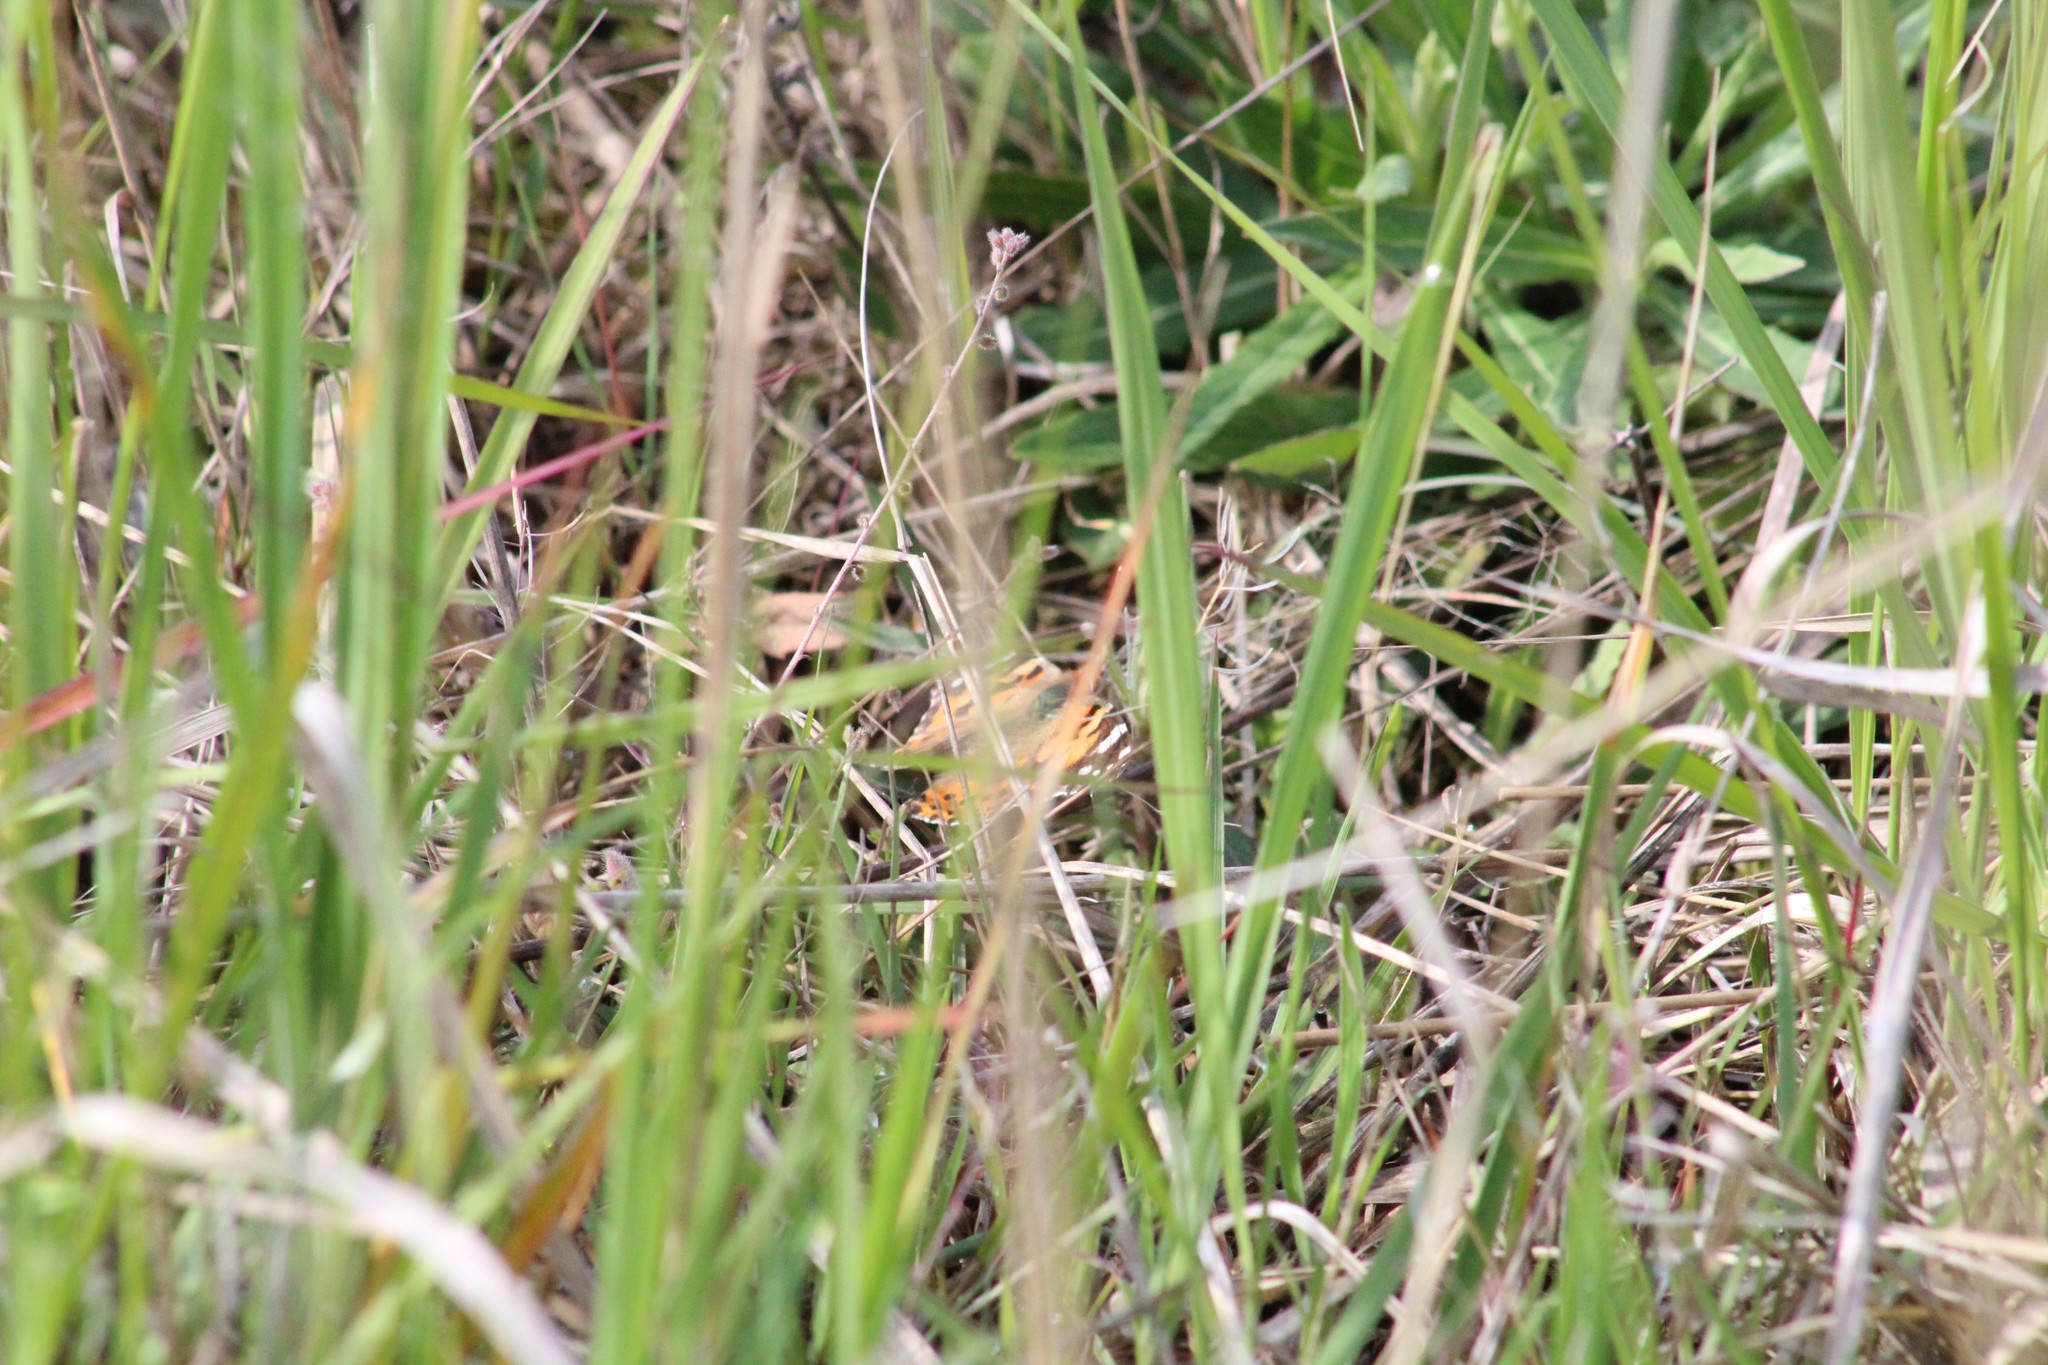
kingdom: Animalia
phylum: Arthropoda
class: Insecta
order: Lepidoptera
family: Nymphalidae
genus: Vanessa
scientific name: Vanessa cardui
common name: Painted lady
